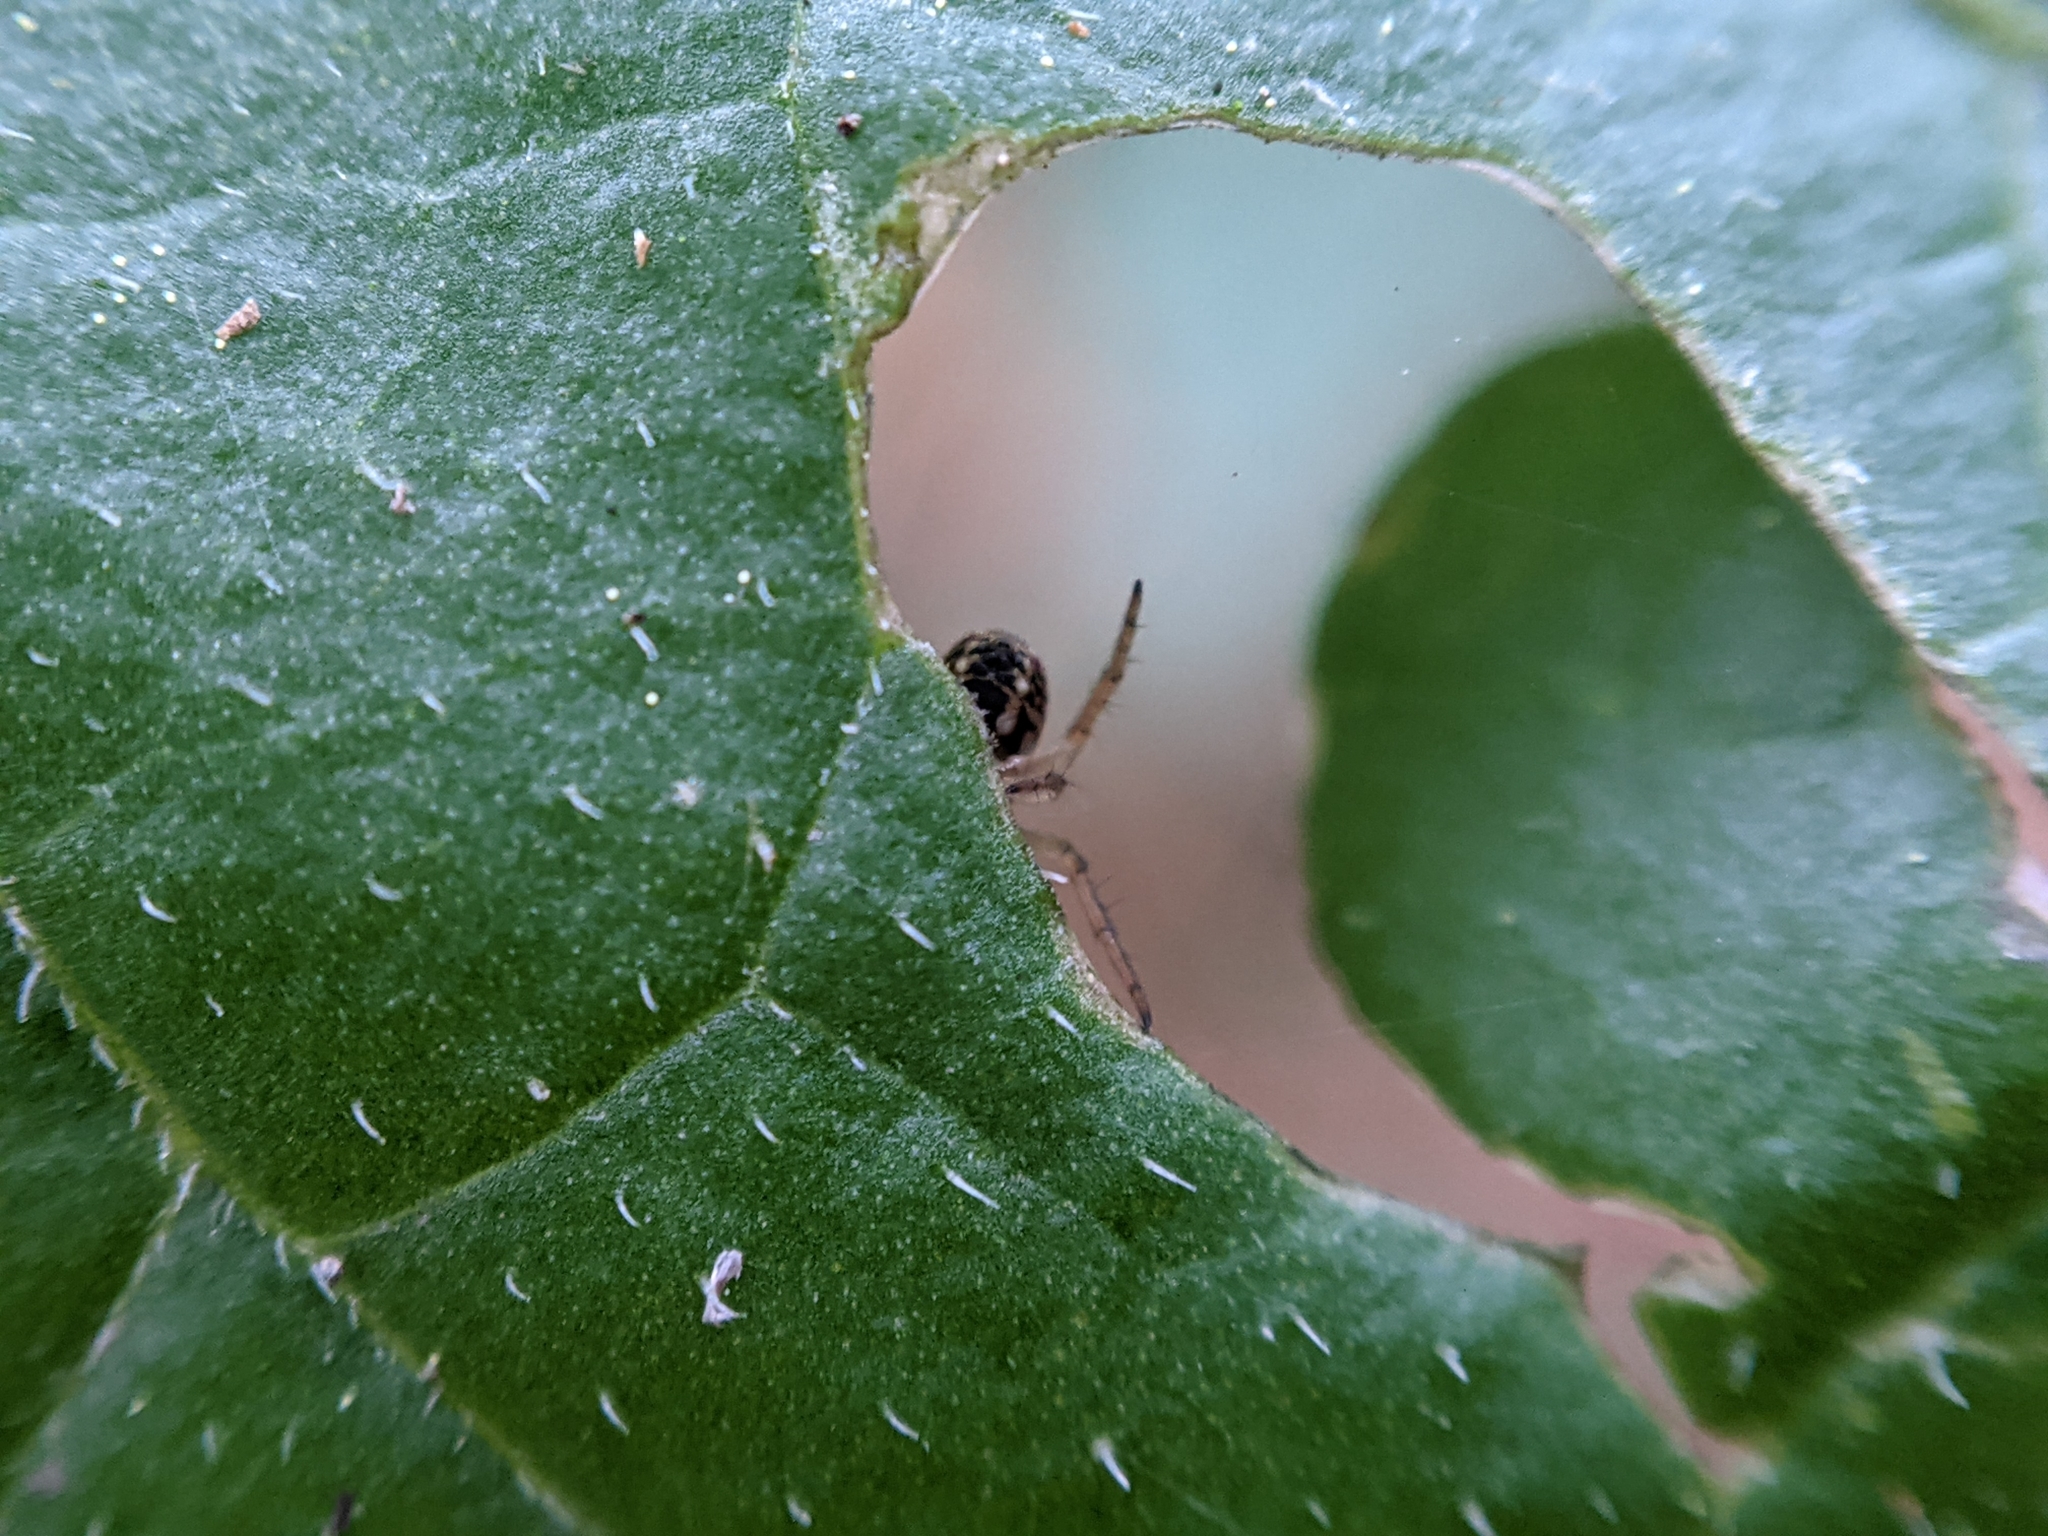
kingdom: Animalia
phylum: Arthropoda
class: Arachnida
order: Araneae
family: Araneidae
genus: Mangora
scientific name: Mangora acalypha
